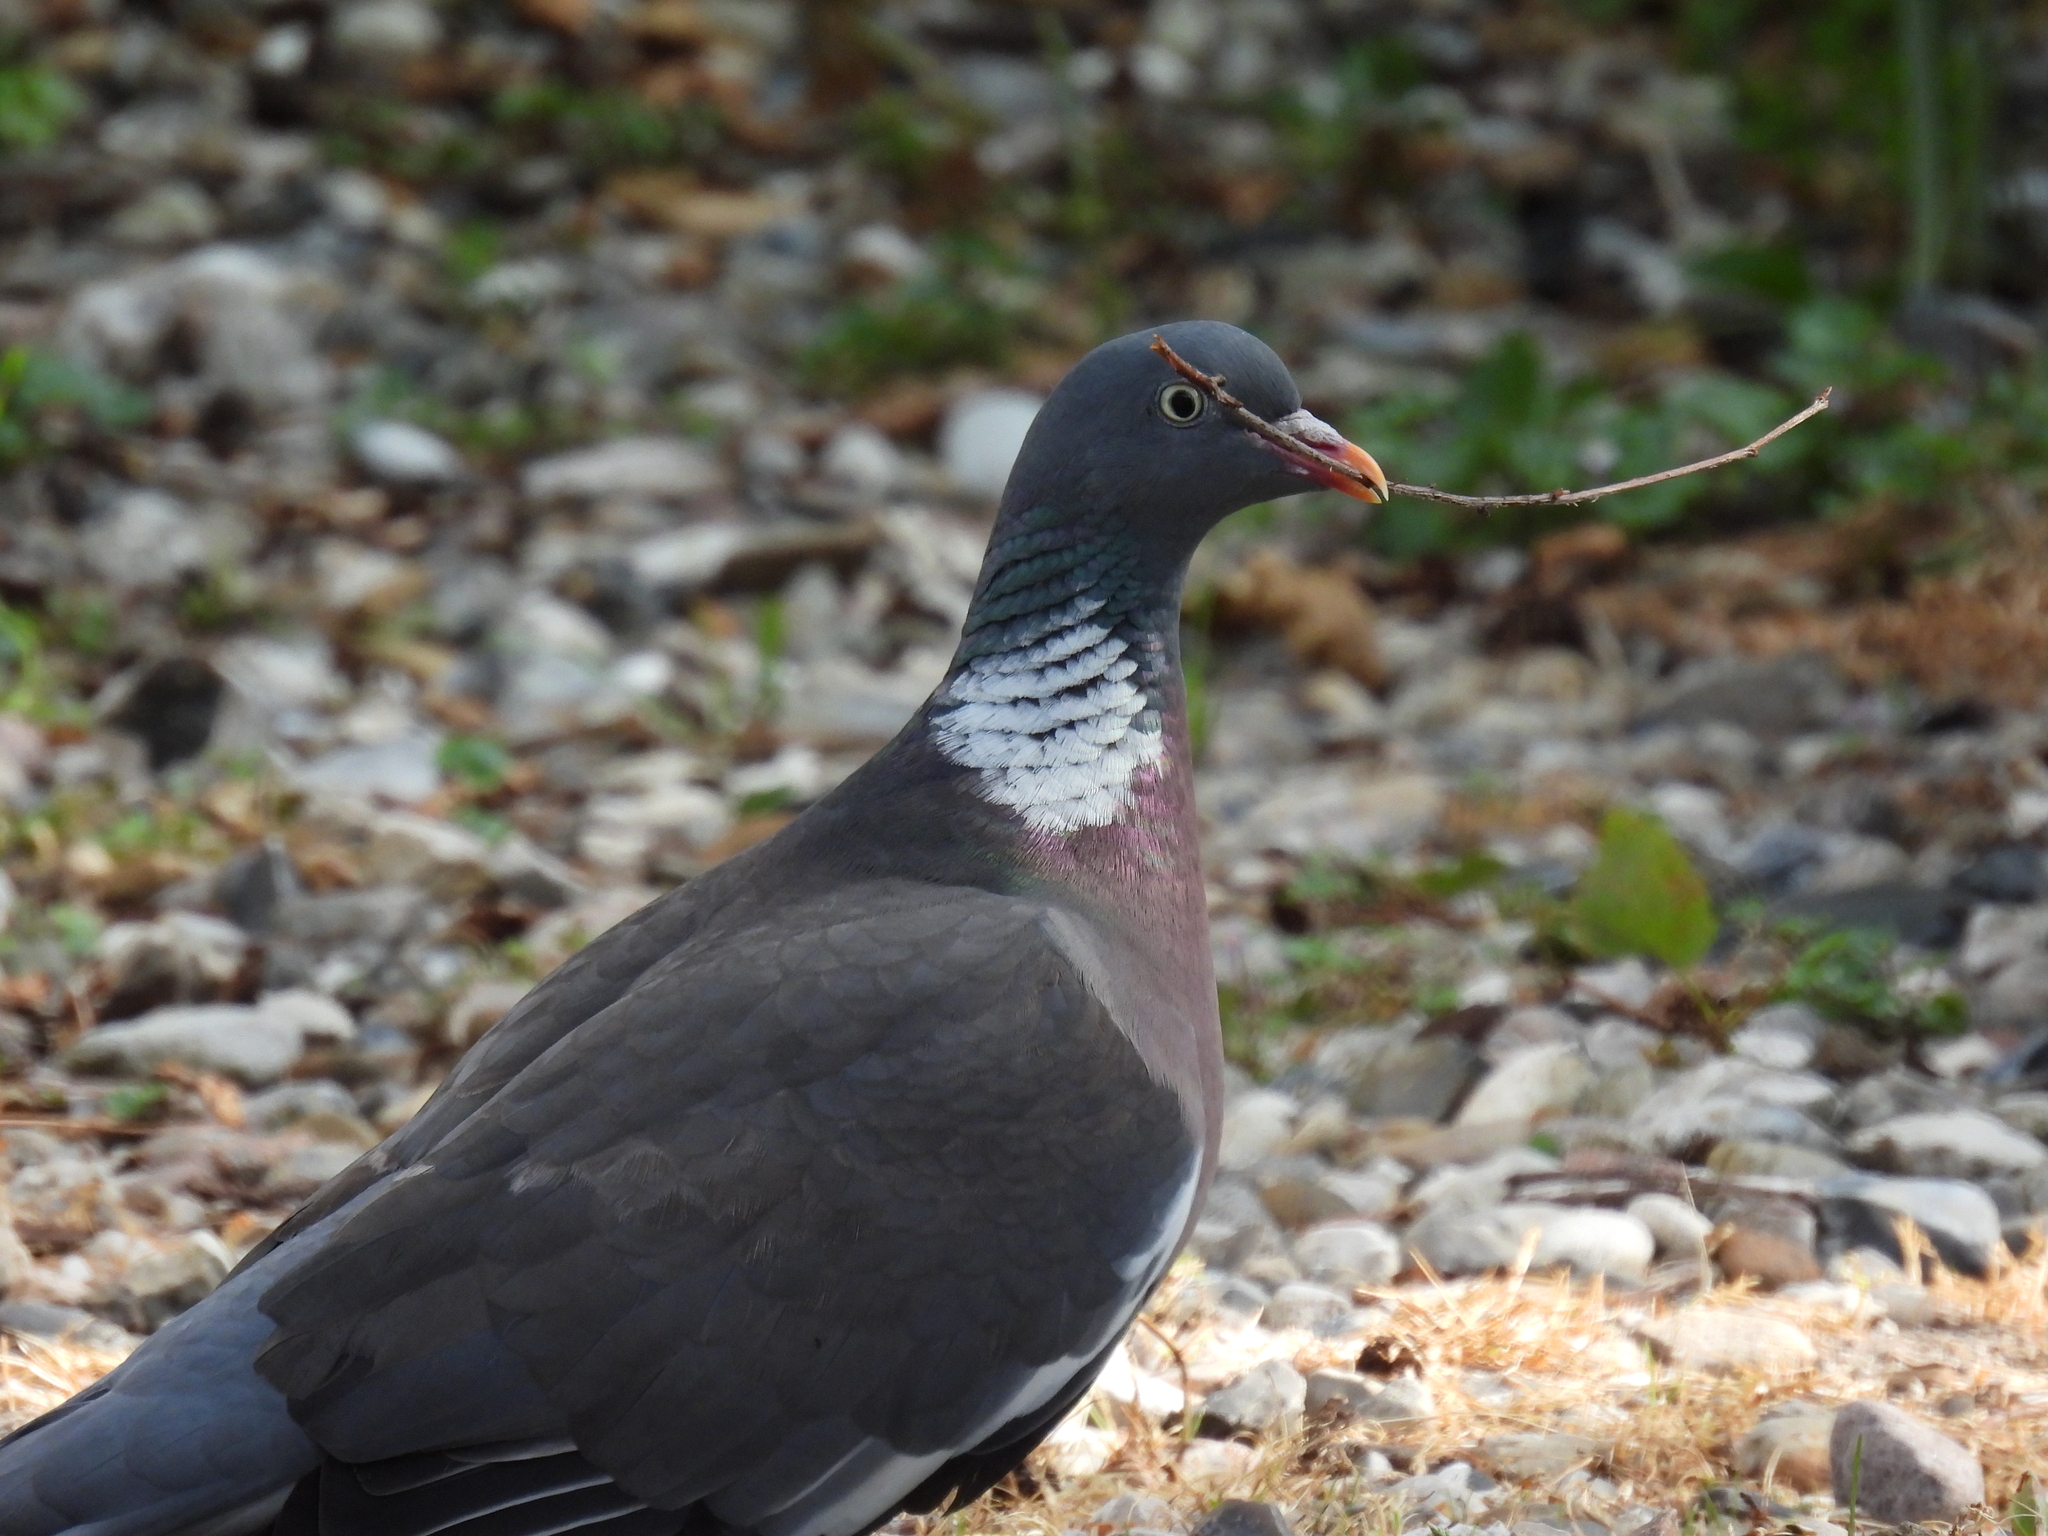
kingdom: Animalia
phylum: Chordata
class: Aves
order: Columbiformes
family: Columbidae
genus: Columba
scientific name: Columba palumbus
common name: Common wood pigeon
